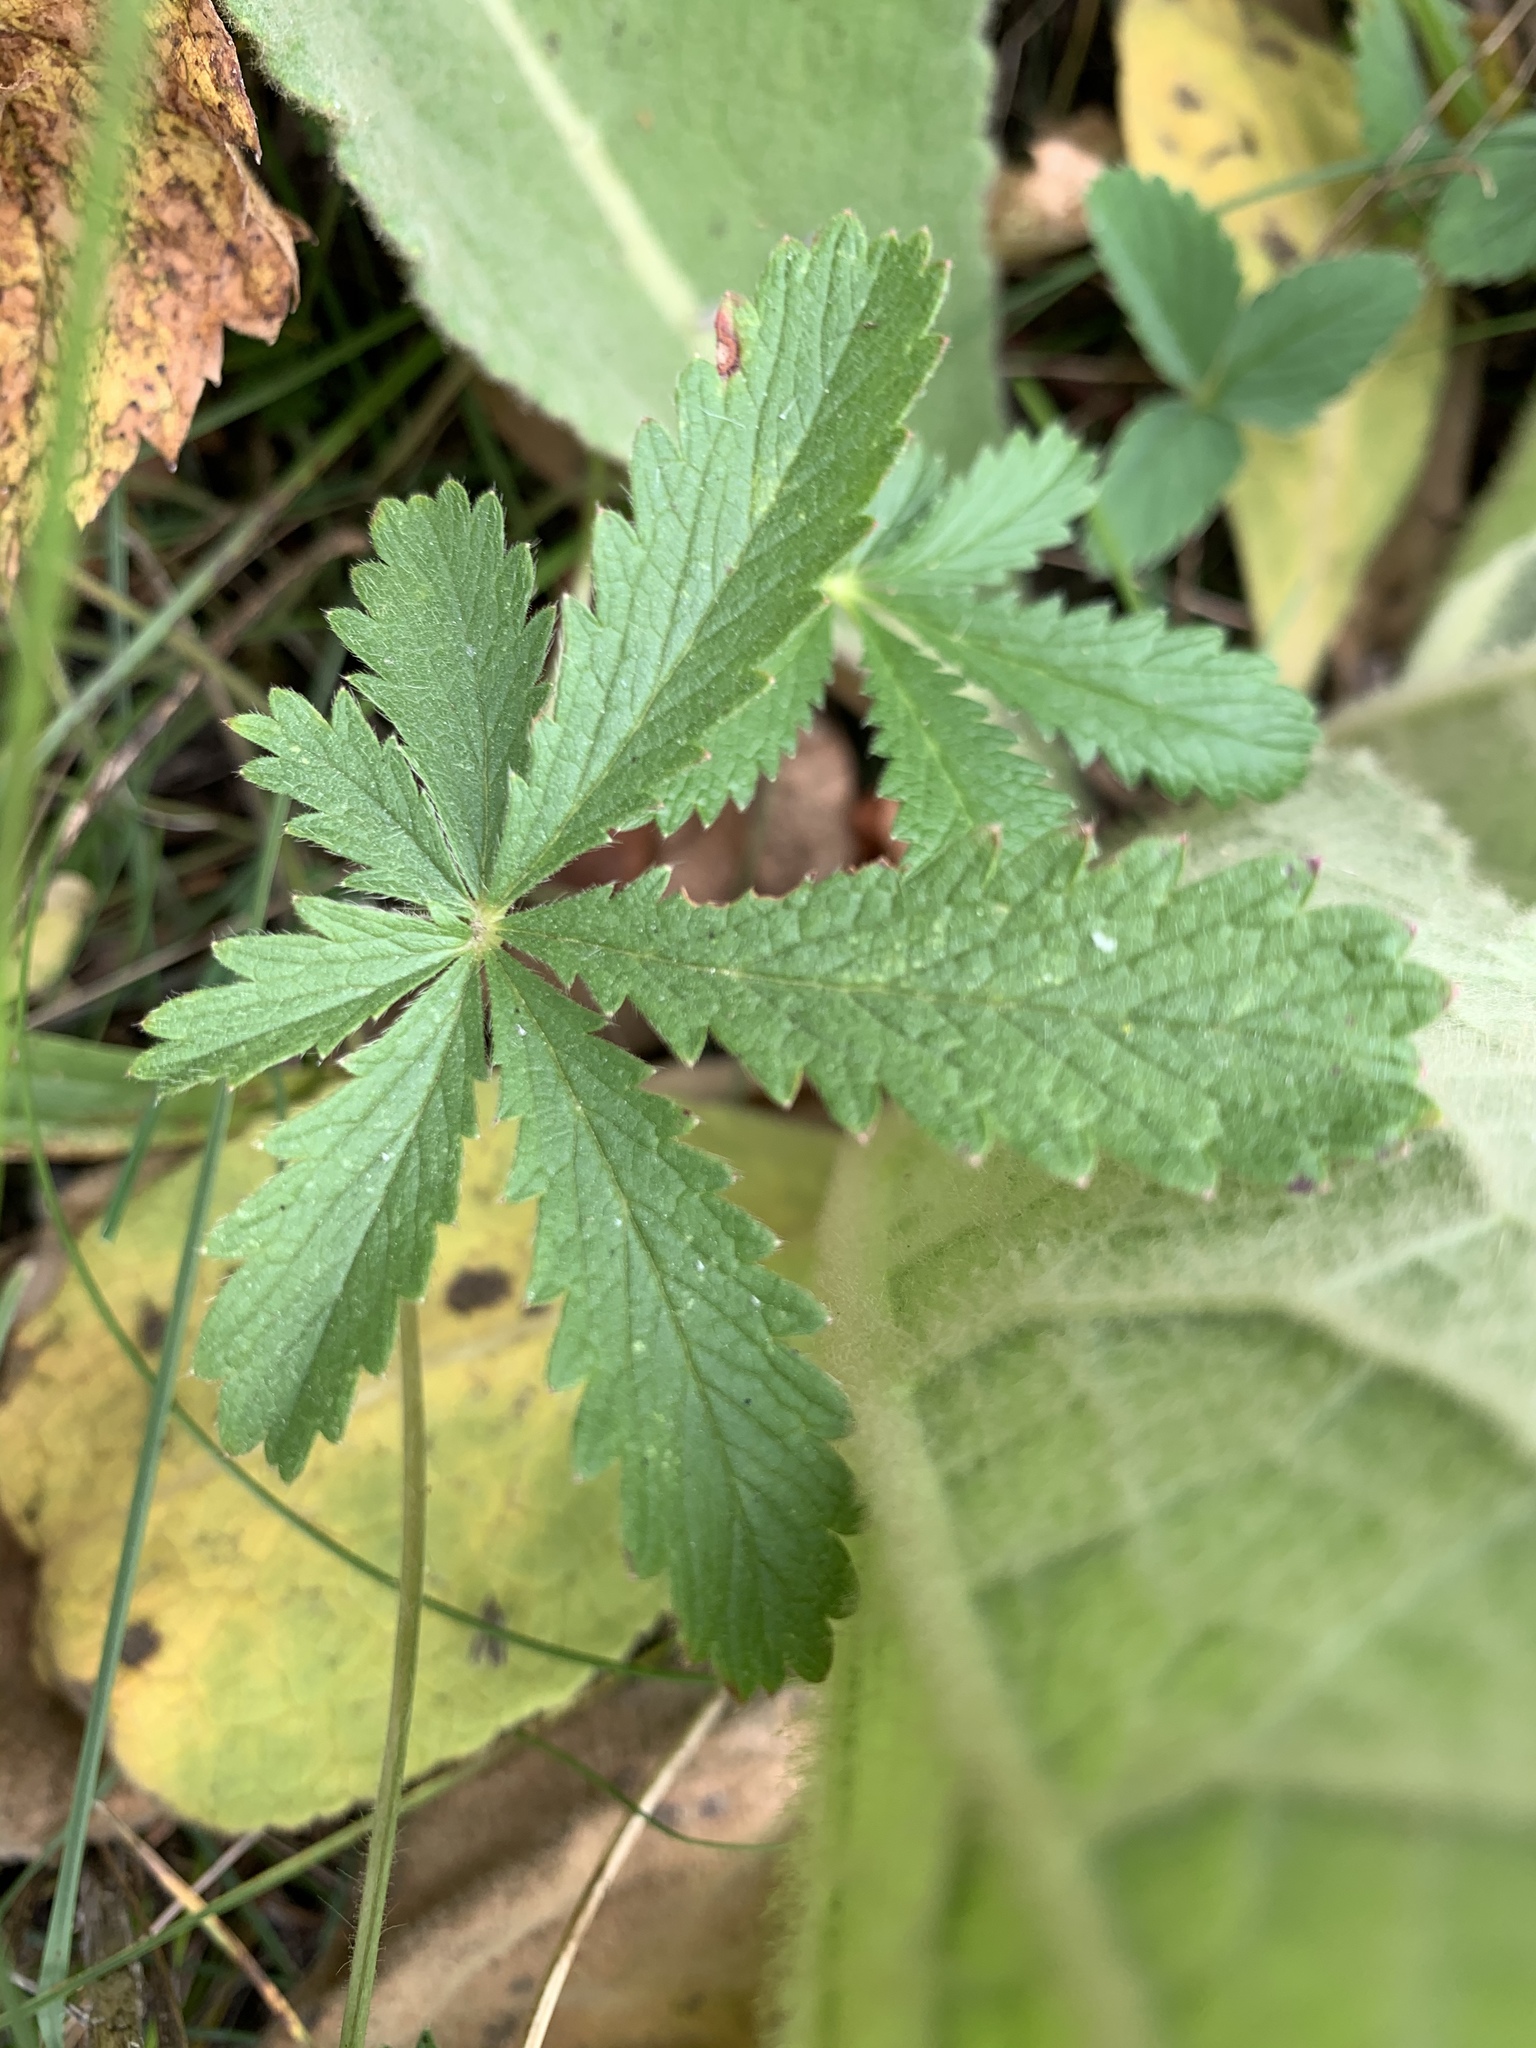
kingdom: Plantae
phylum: Tracheophyta
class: Magnoliopsida
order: Rosales
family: Rosaceae
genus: Potentilla
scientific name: Potentilla recta
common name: Sulphur cinquefoil
